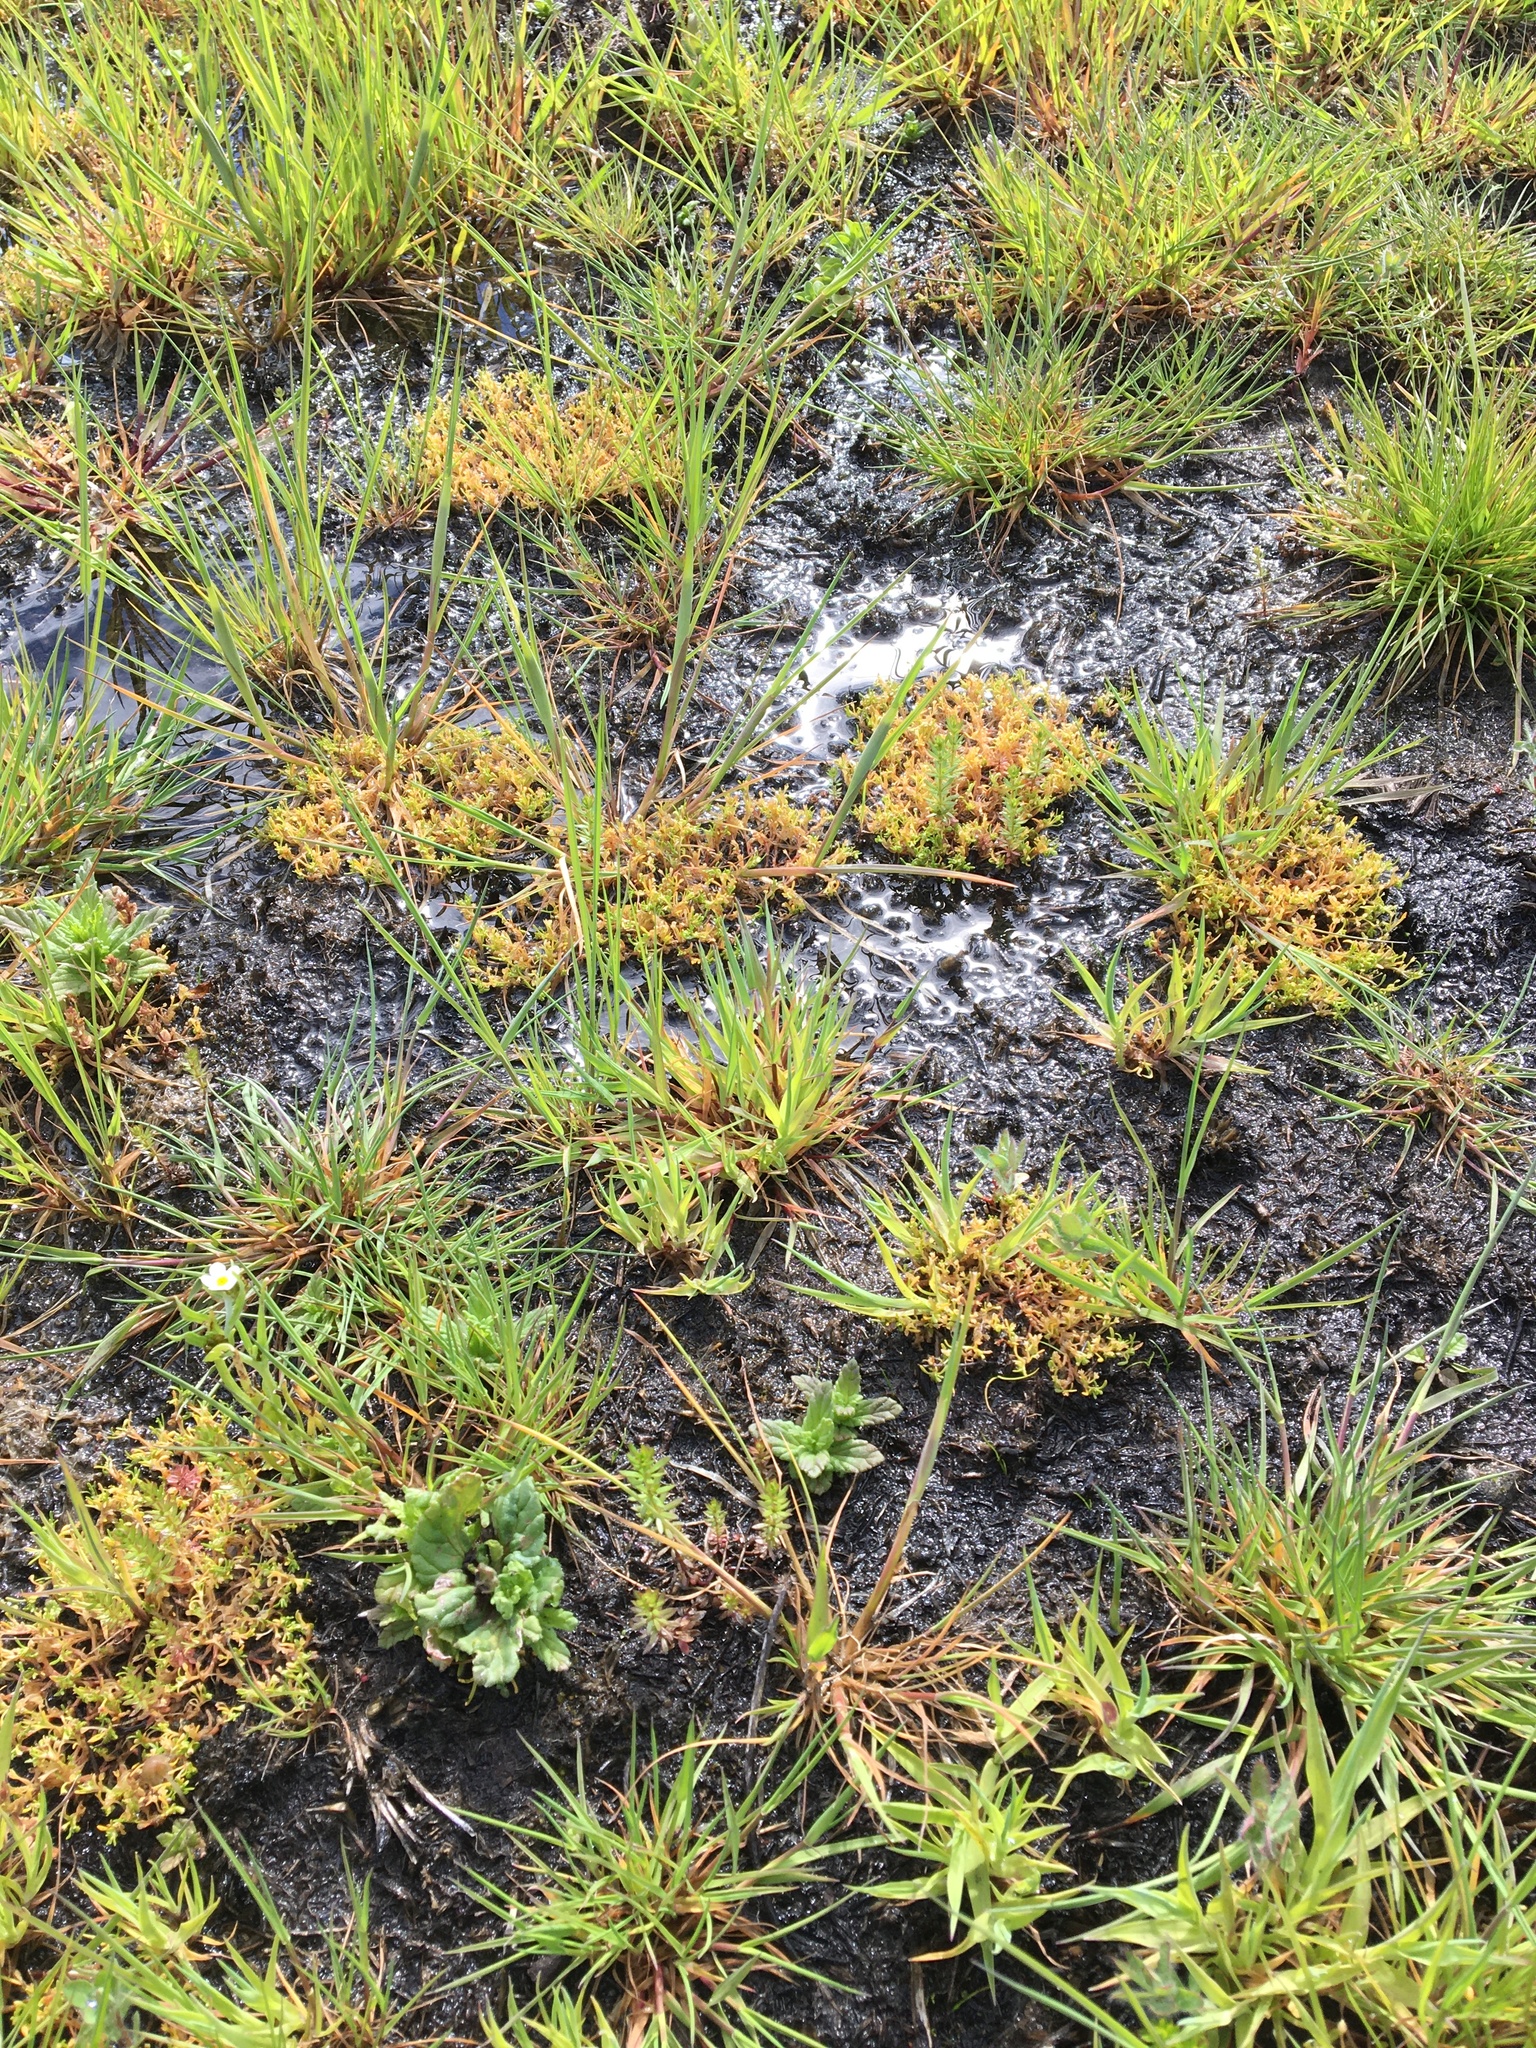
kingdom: Plantae
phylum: Tracheophyta
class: Magnoliopsida
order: Caryophyllales
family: Montiaceae
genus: Montia
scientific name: Montia howellii
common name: Howell's miner's-lettuce
